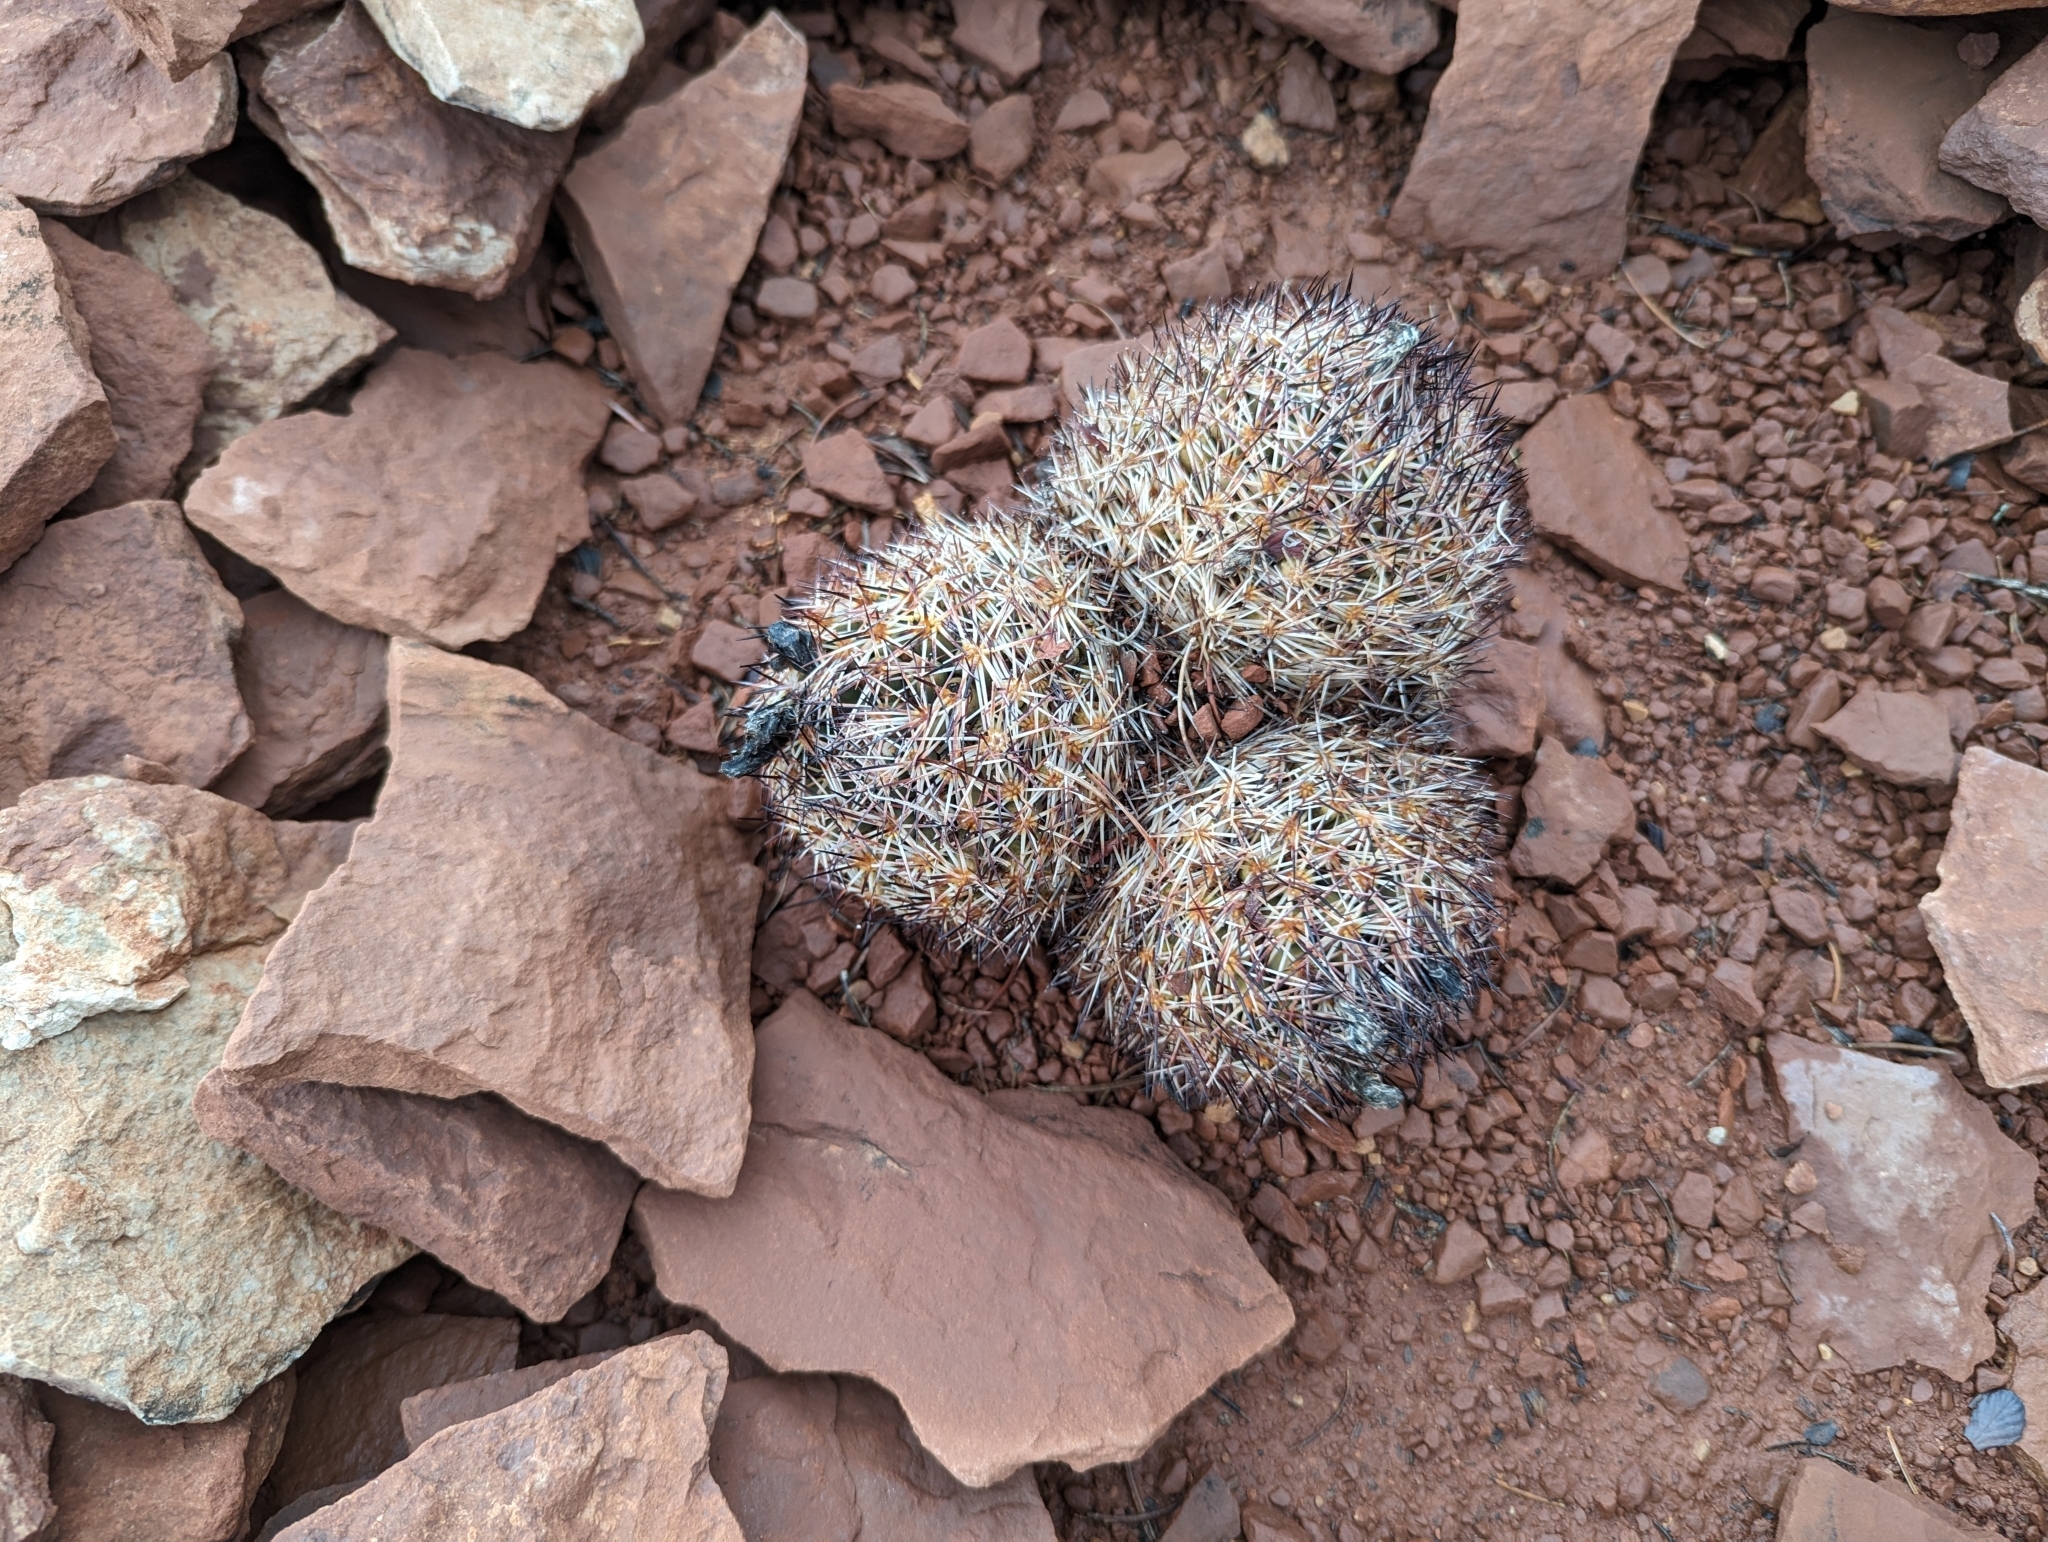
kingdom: Plantae
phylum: Tracheophyta
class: Magnoliopsida
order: Caryophyllales
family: Cactaceae
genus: Pelecyphora
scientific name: Pelecyphora vivipara
